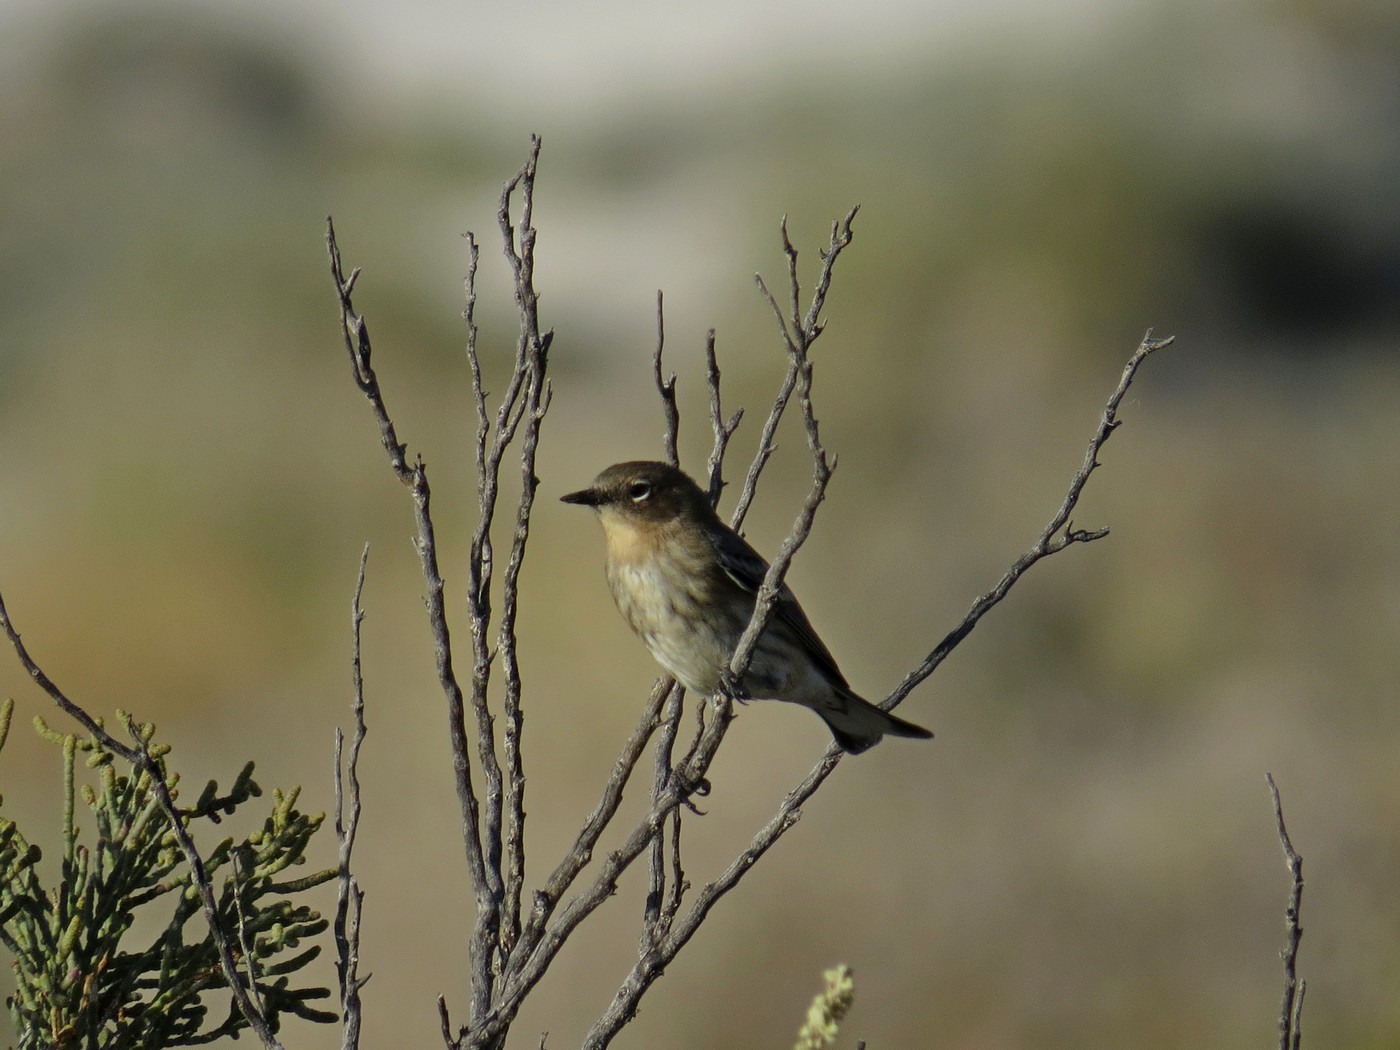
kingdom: Animalia
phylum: Chordata
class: Aves
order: Passeriformes
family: Parulidae
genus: Setophaga
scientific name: Setophaga coronata
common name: Myrtle warbler
